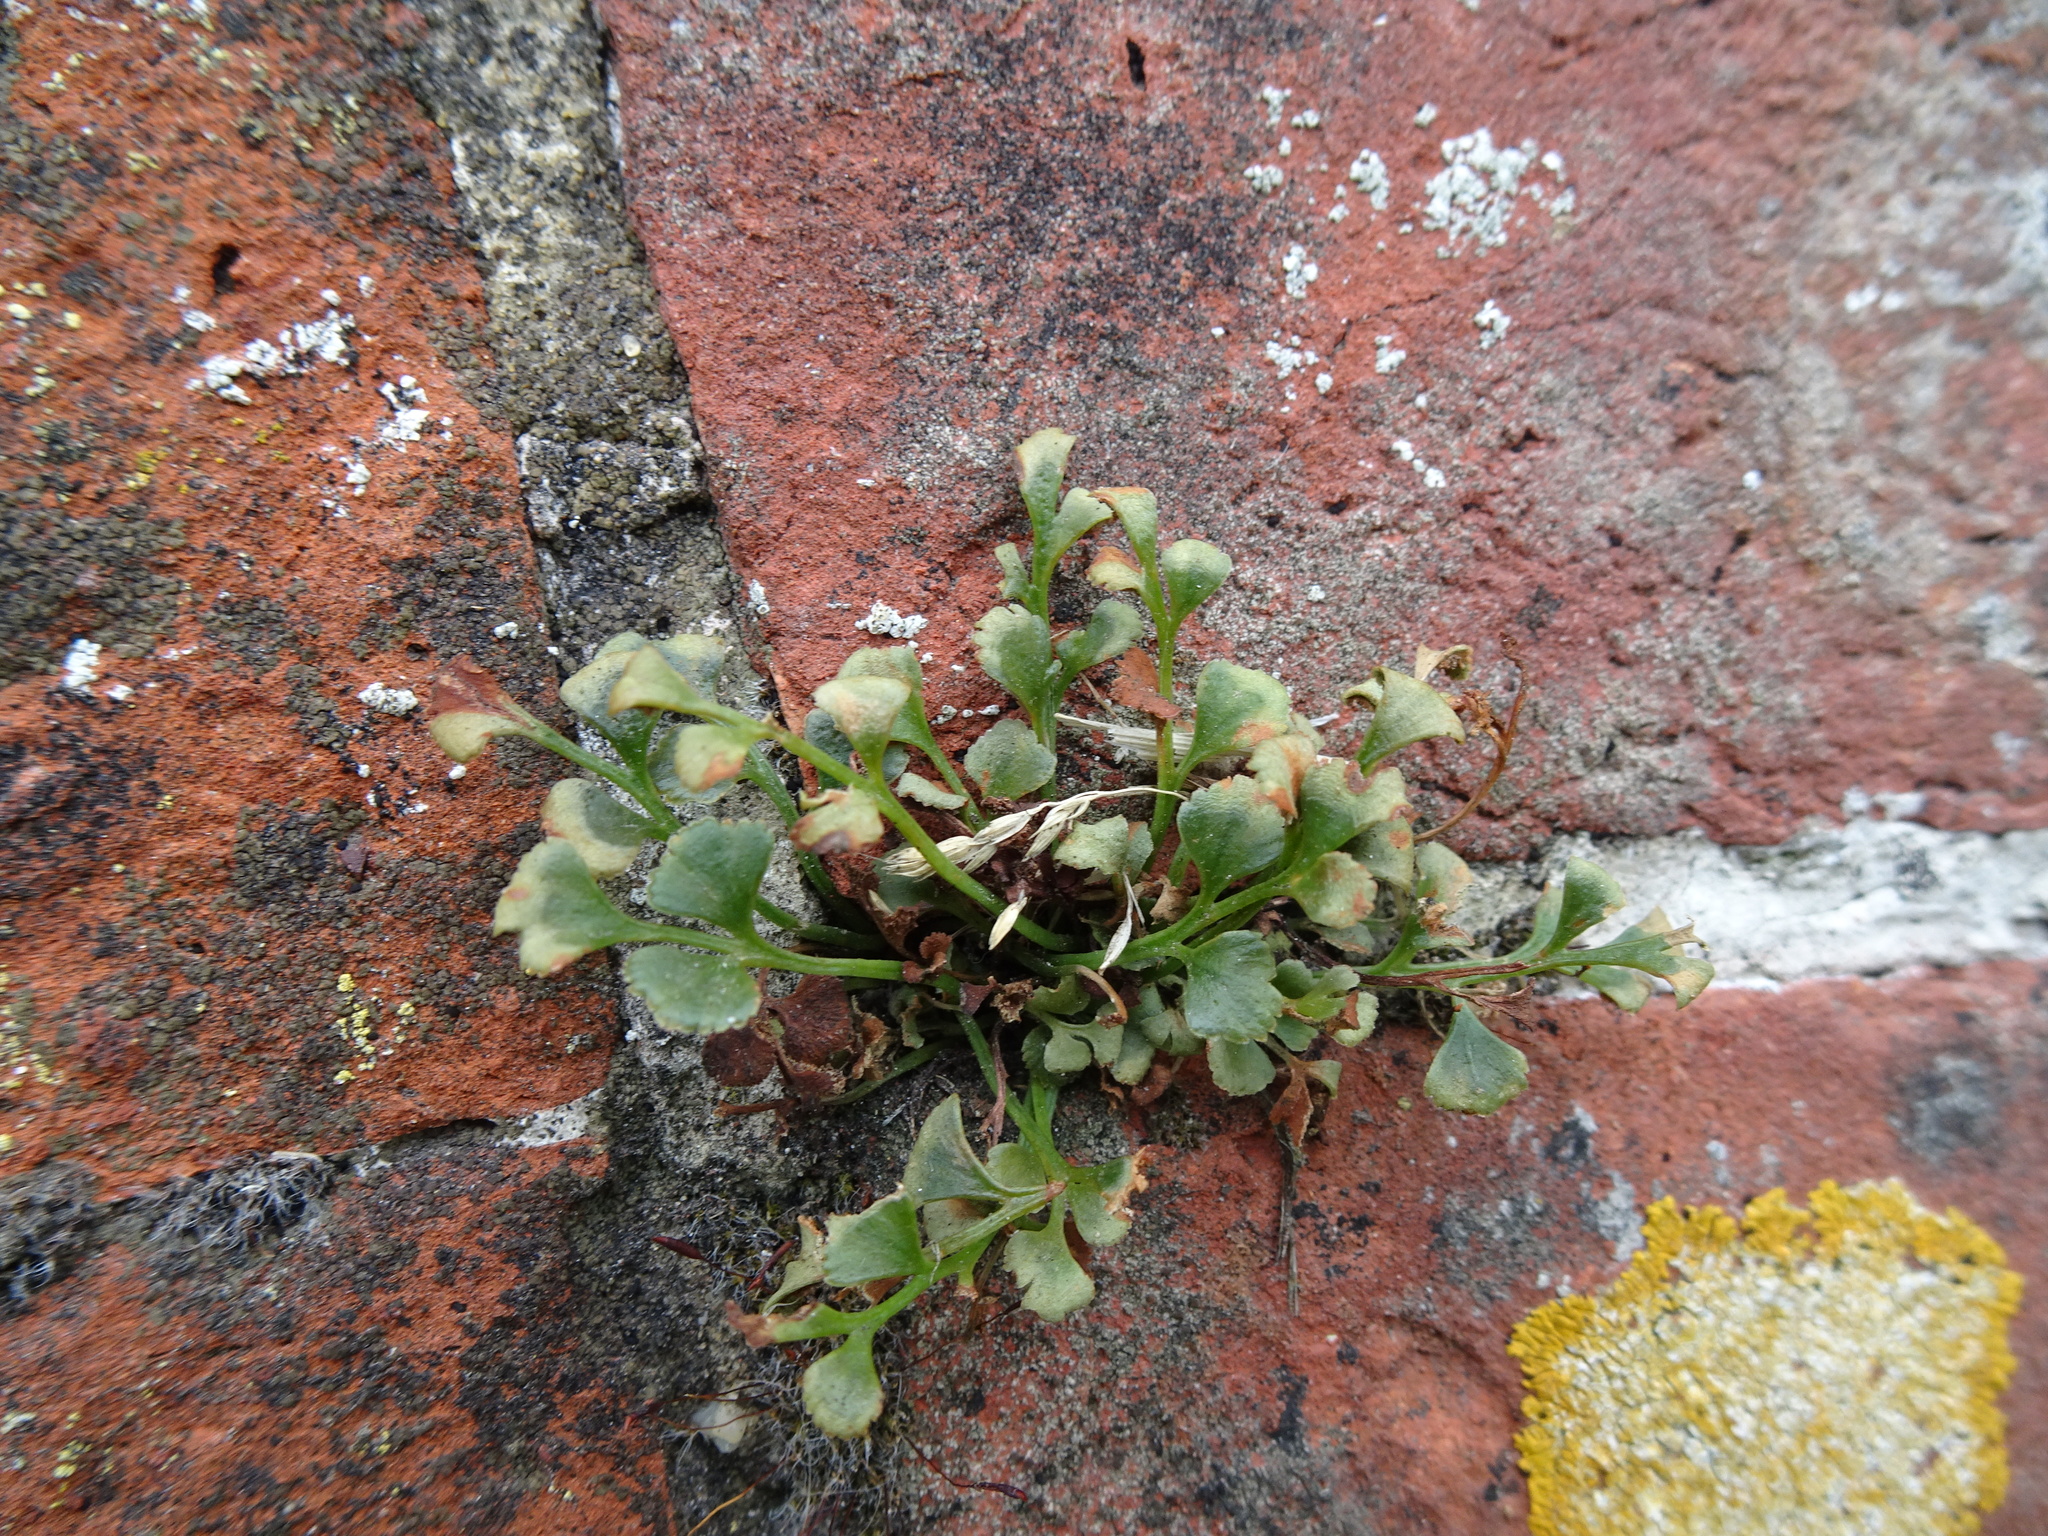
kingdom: Plantae
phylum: Tracheophyta
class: Polypodiopsida
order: Polypodiales
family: Aspleniaceae
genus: Asplenium
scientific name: Asplenium ruta-muraria
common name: Wall-rue
